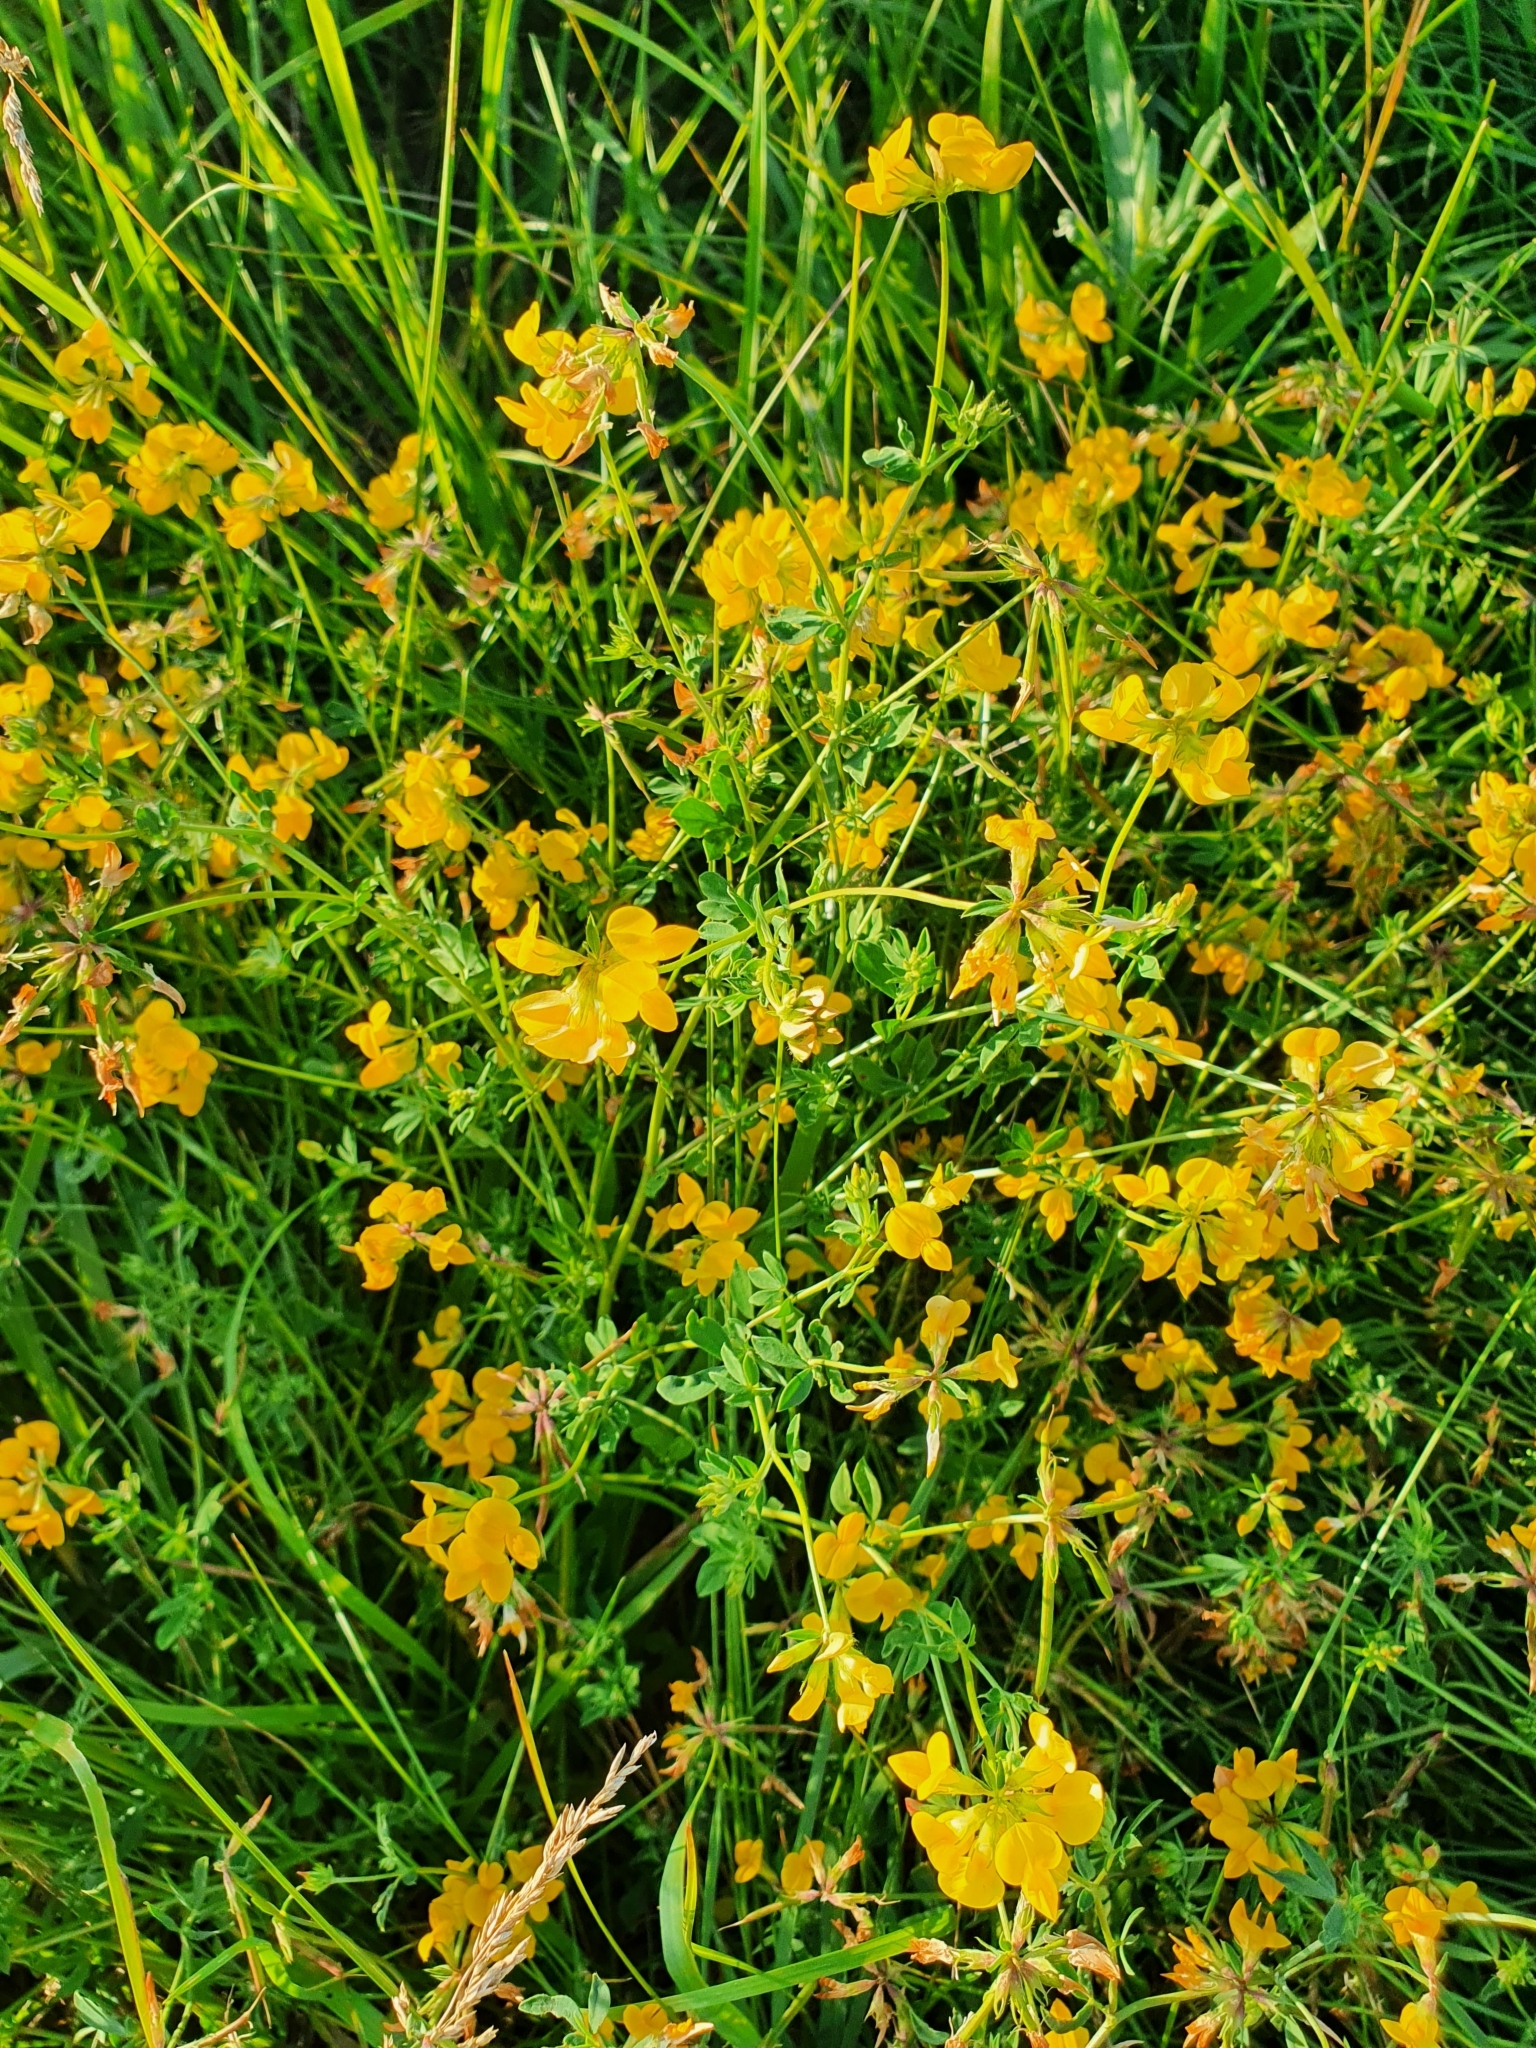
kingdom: Plantae
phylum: Tracheophyta
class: Magnoliopsida
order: Fabales
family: Fabaceae
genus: Lotus
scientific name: Lotus corniculatus
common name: Common bird's-foot-trefoil
